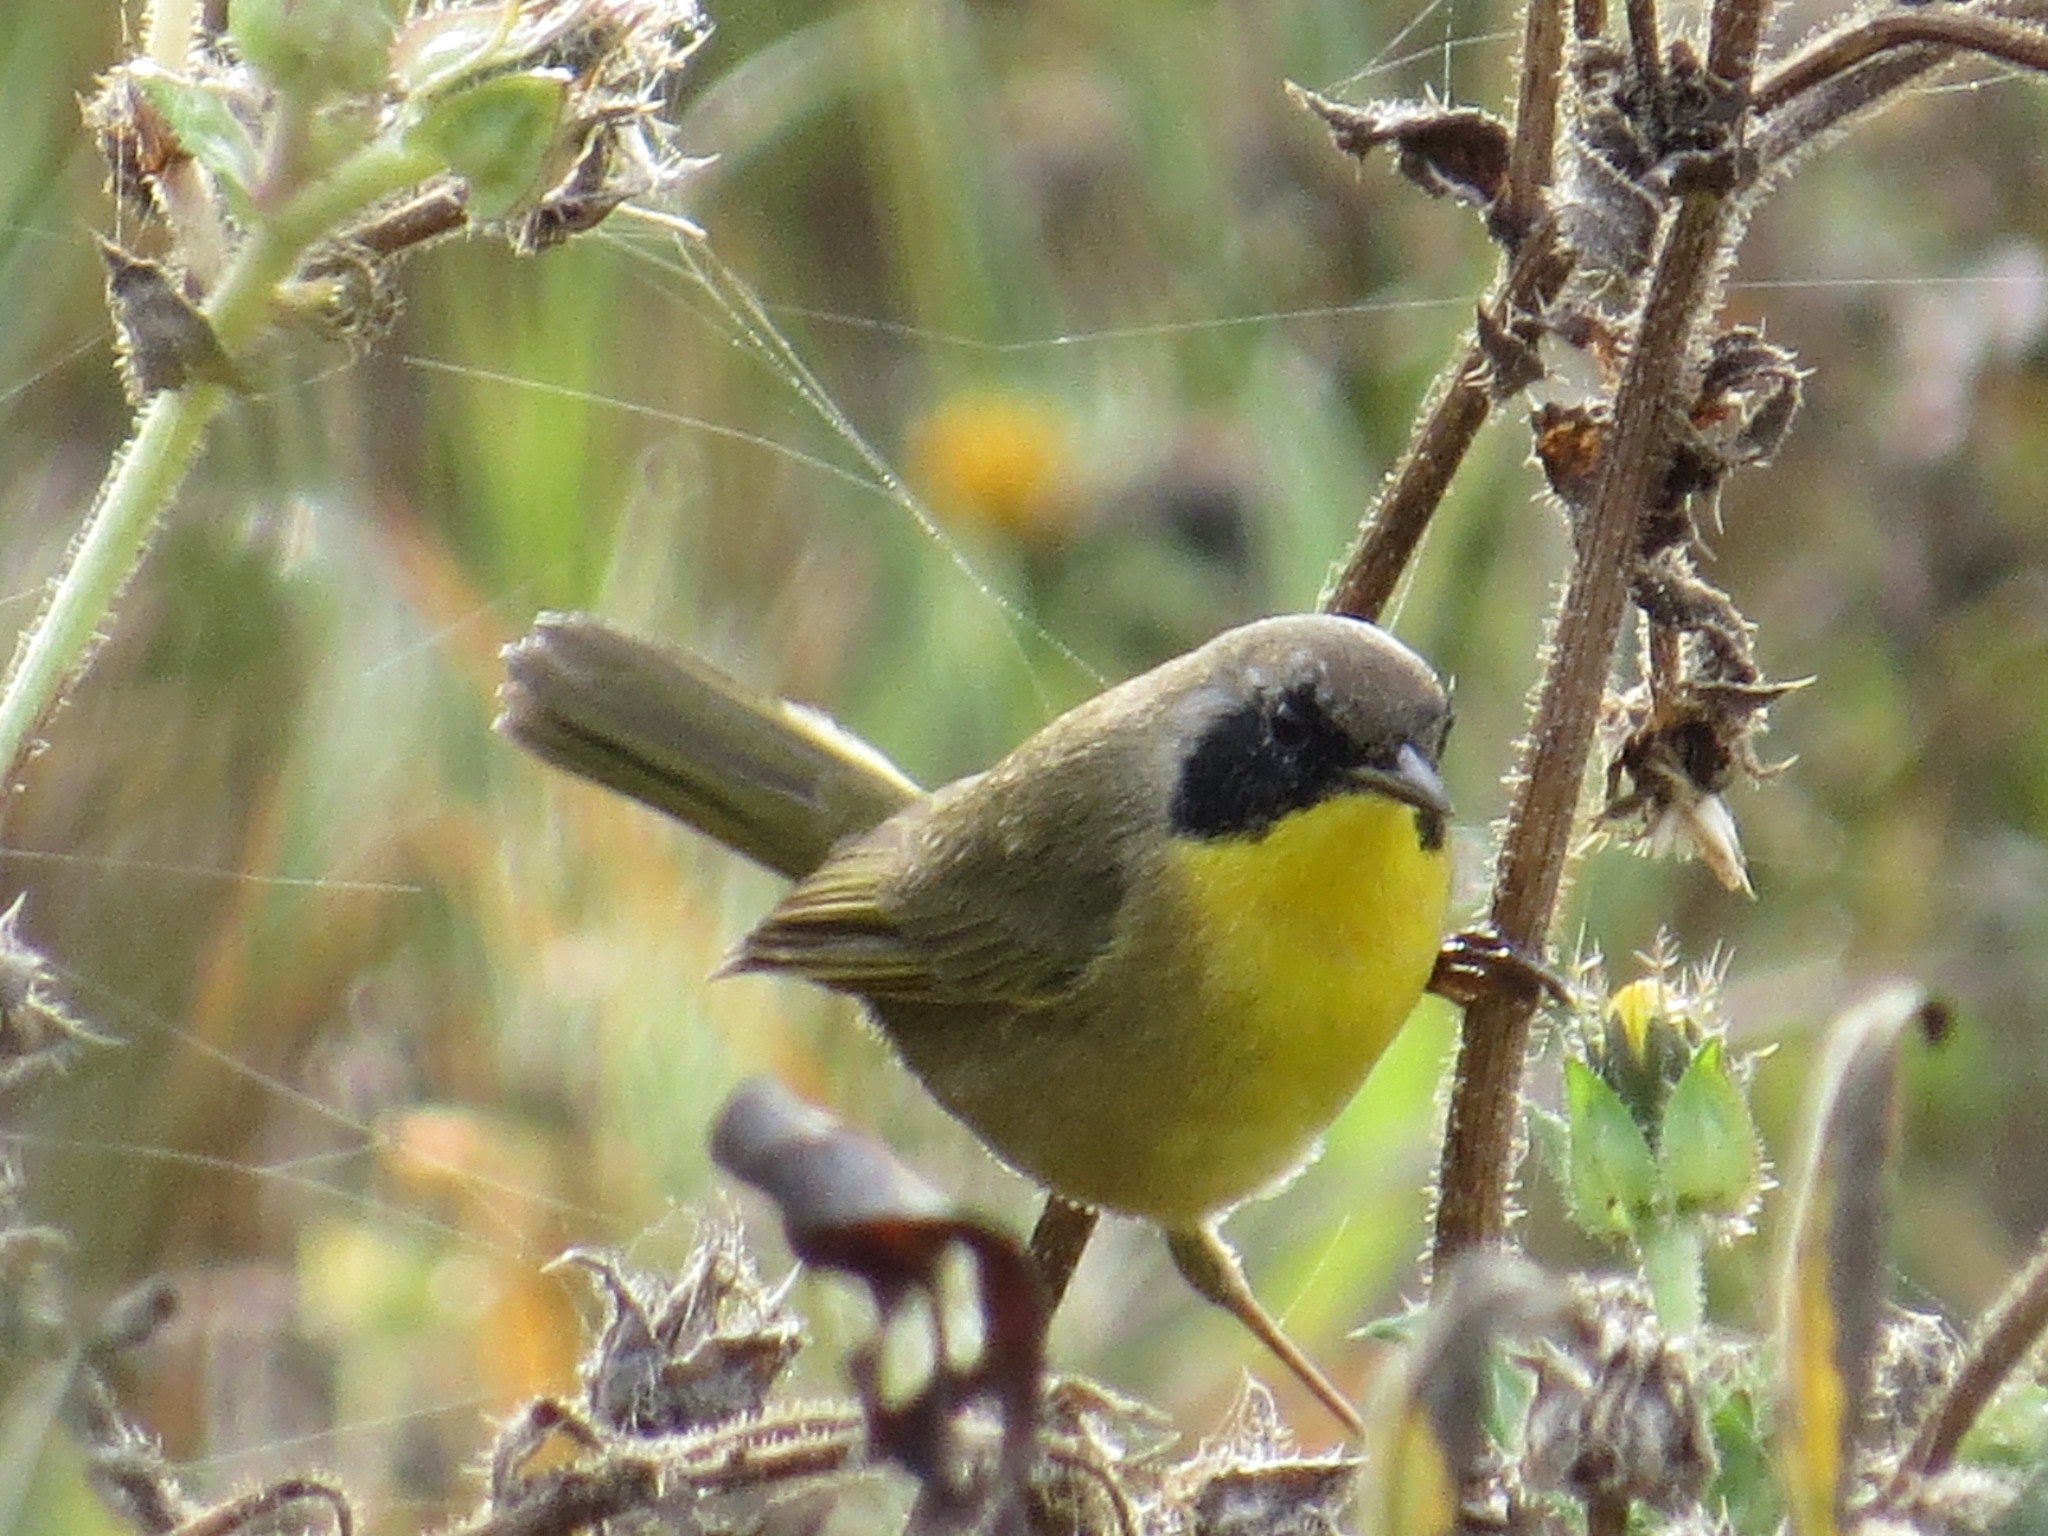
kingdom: Animalia
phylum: Chordata
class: Aves
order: Passeriformes
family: Parulidae
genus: Geothlypis
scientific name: Geothlypis trichas
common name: Common yellowthroat
